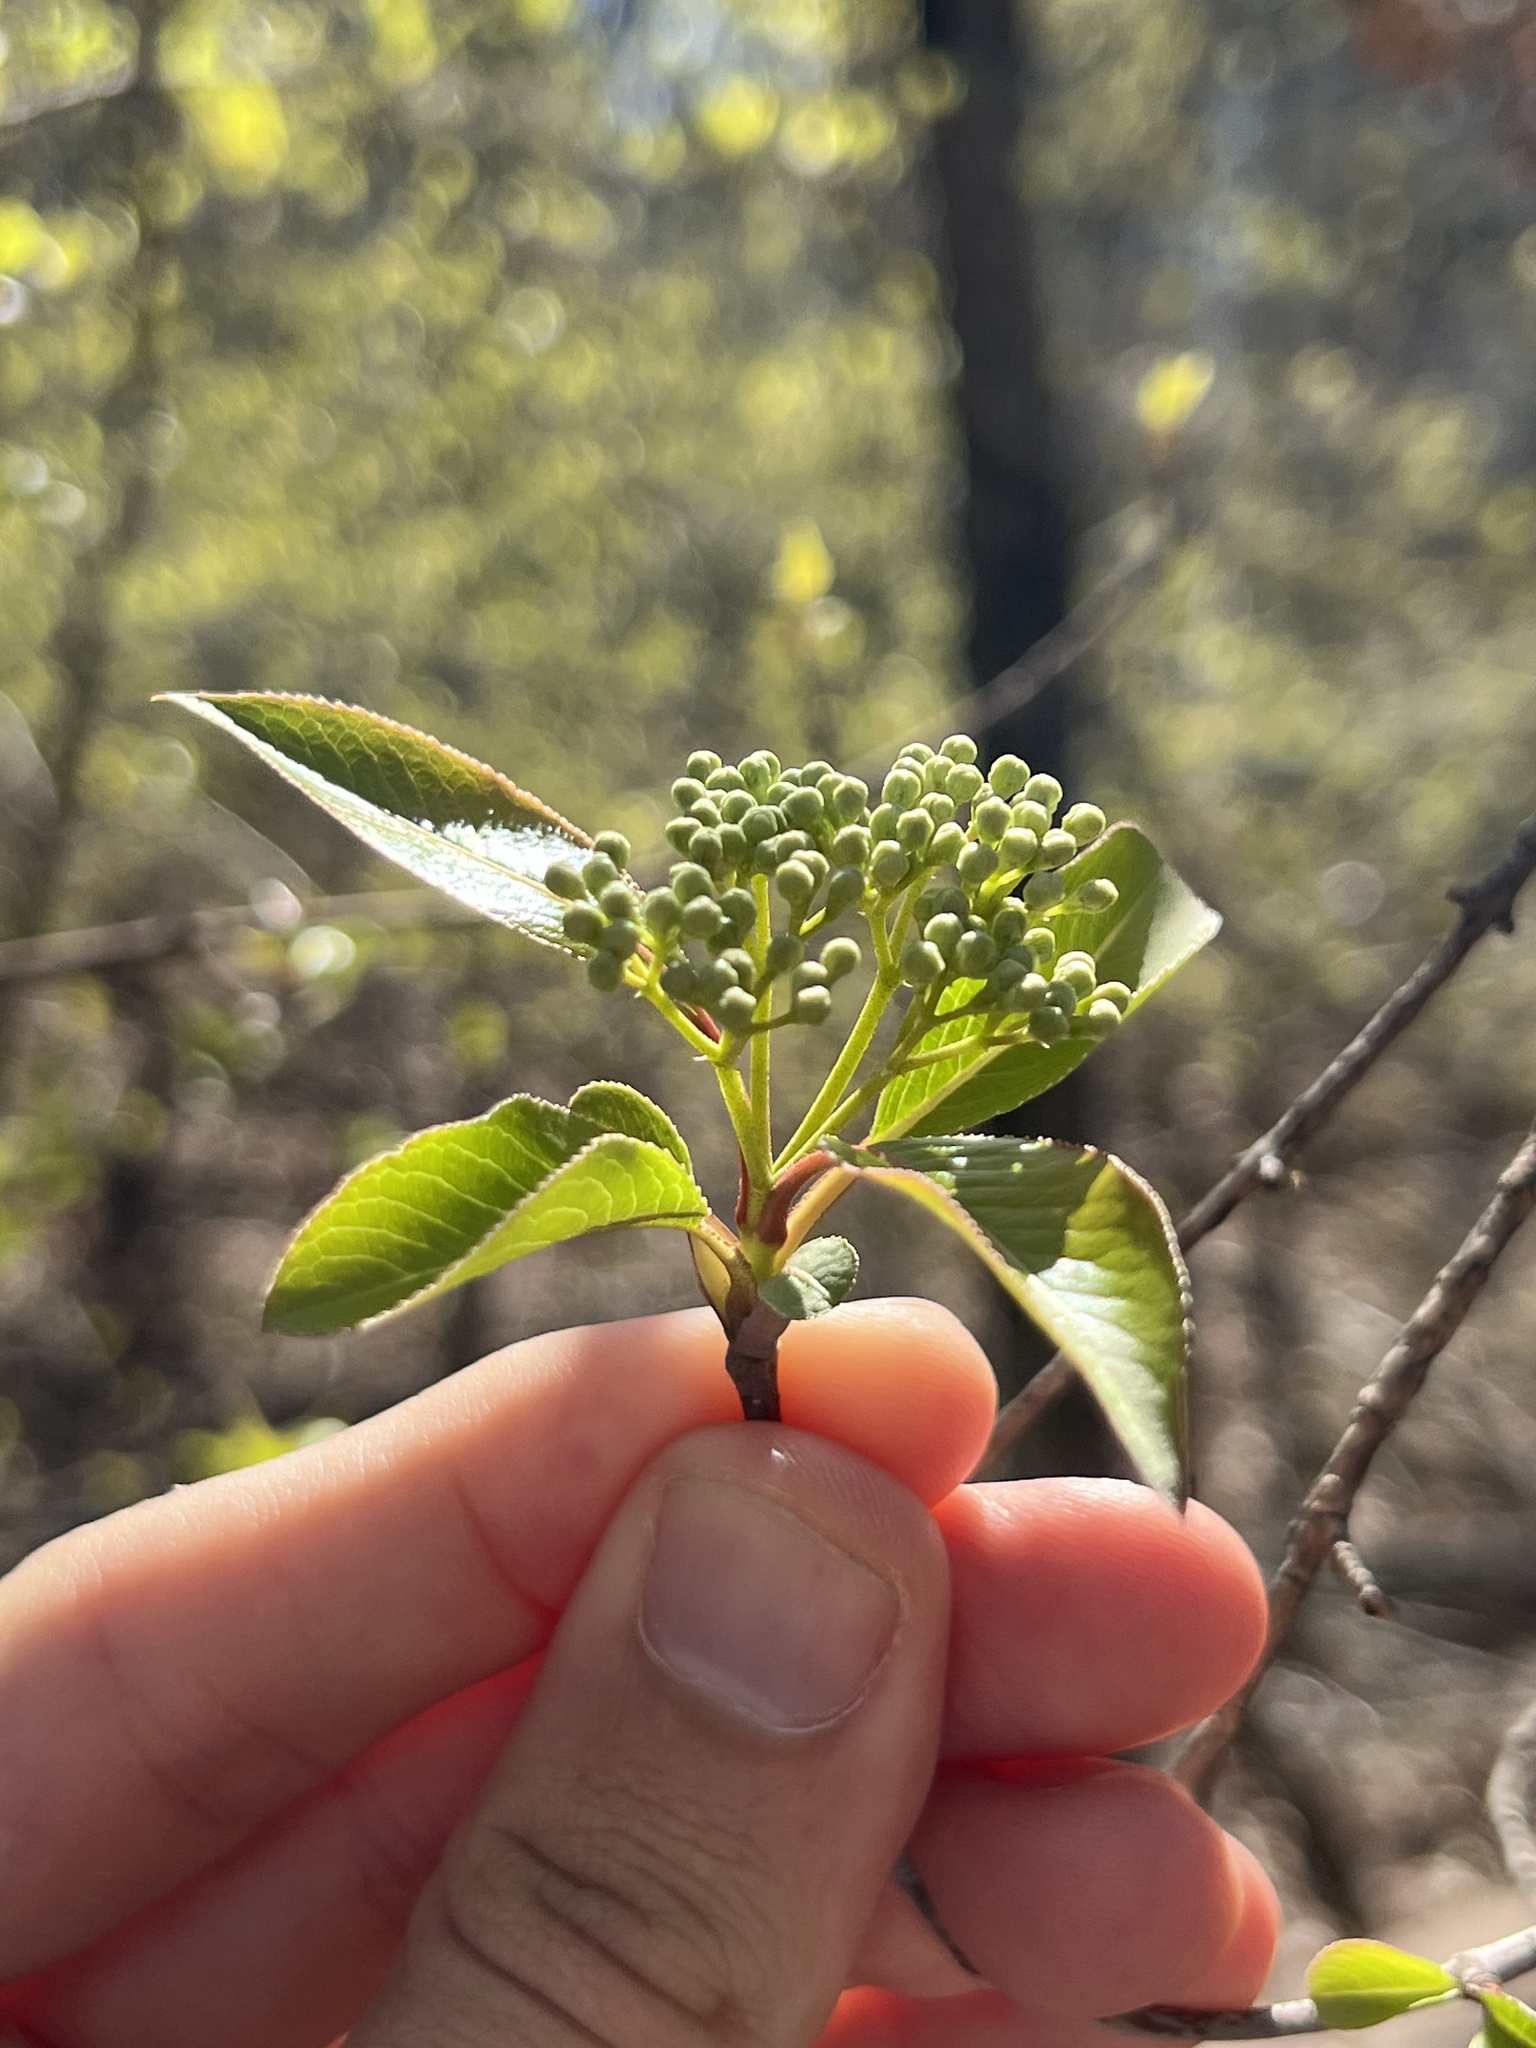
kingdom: Plantae
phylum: Tracheophyta
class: Magnoliopsida
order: Dipsacales
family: Viburnaceae
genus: Viburnum
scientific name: Viburnum prunifolium
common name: Black haw
